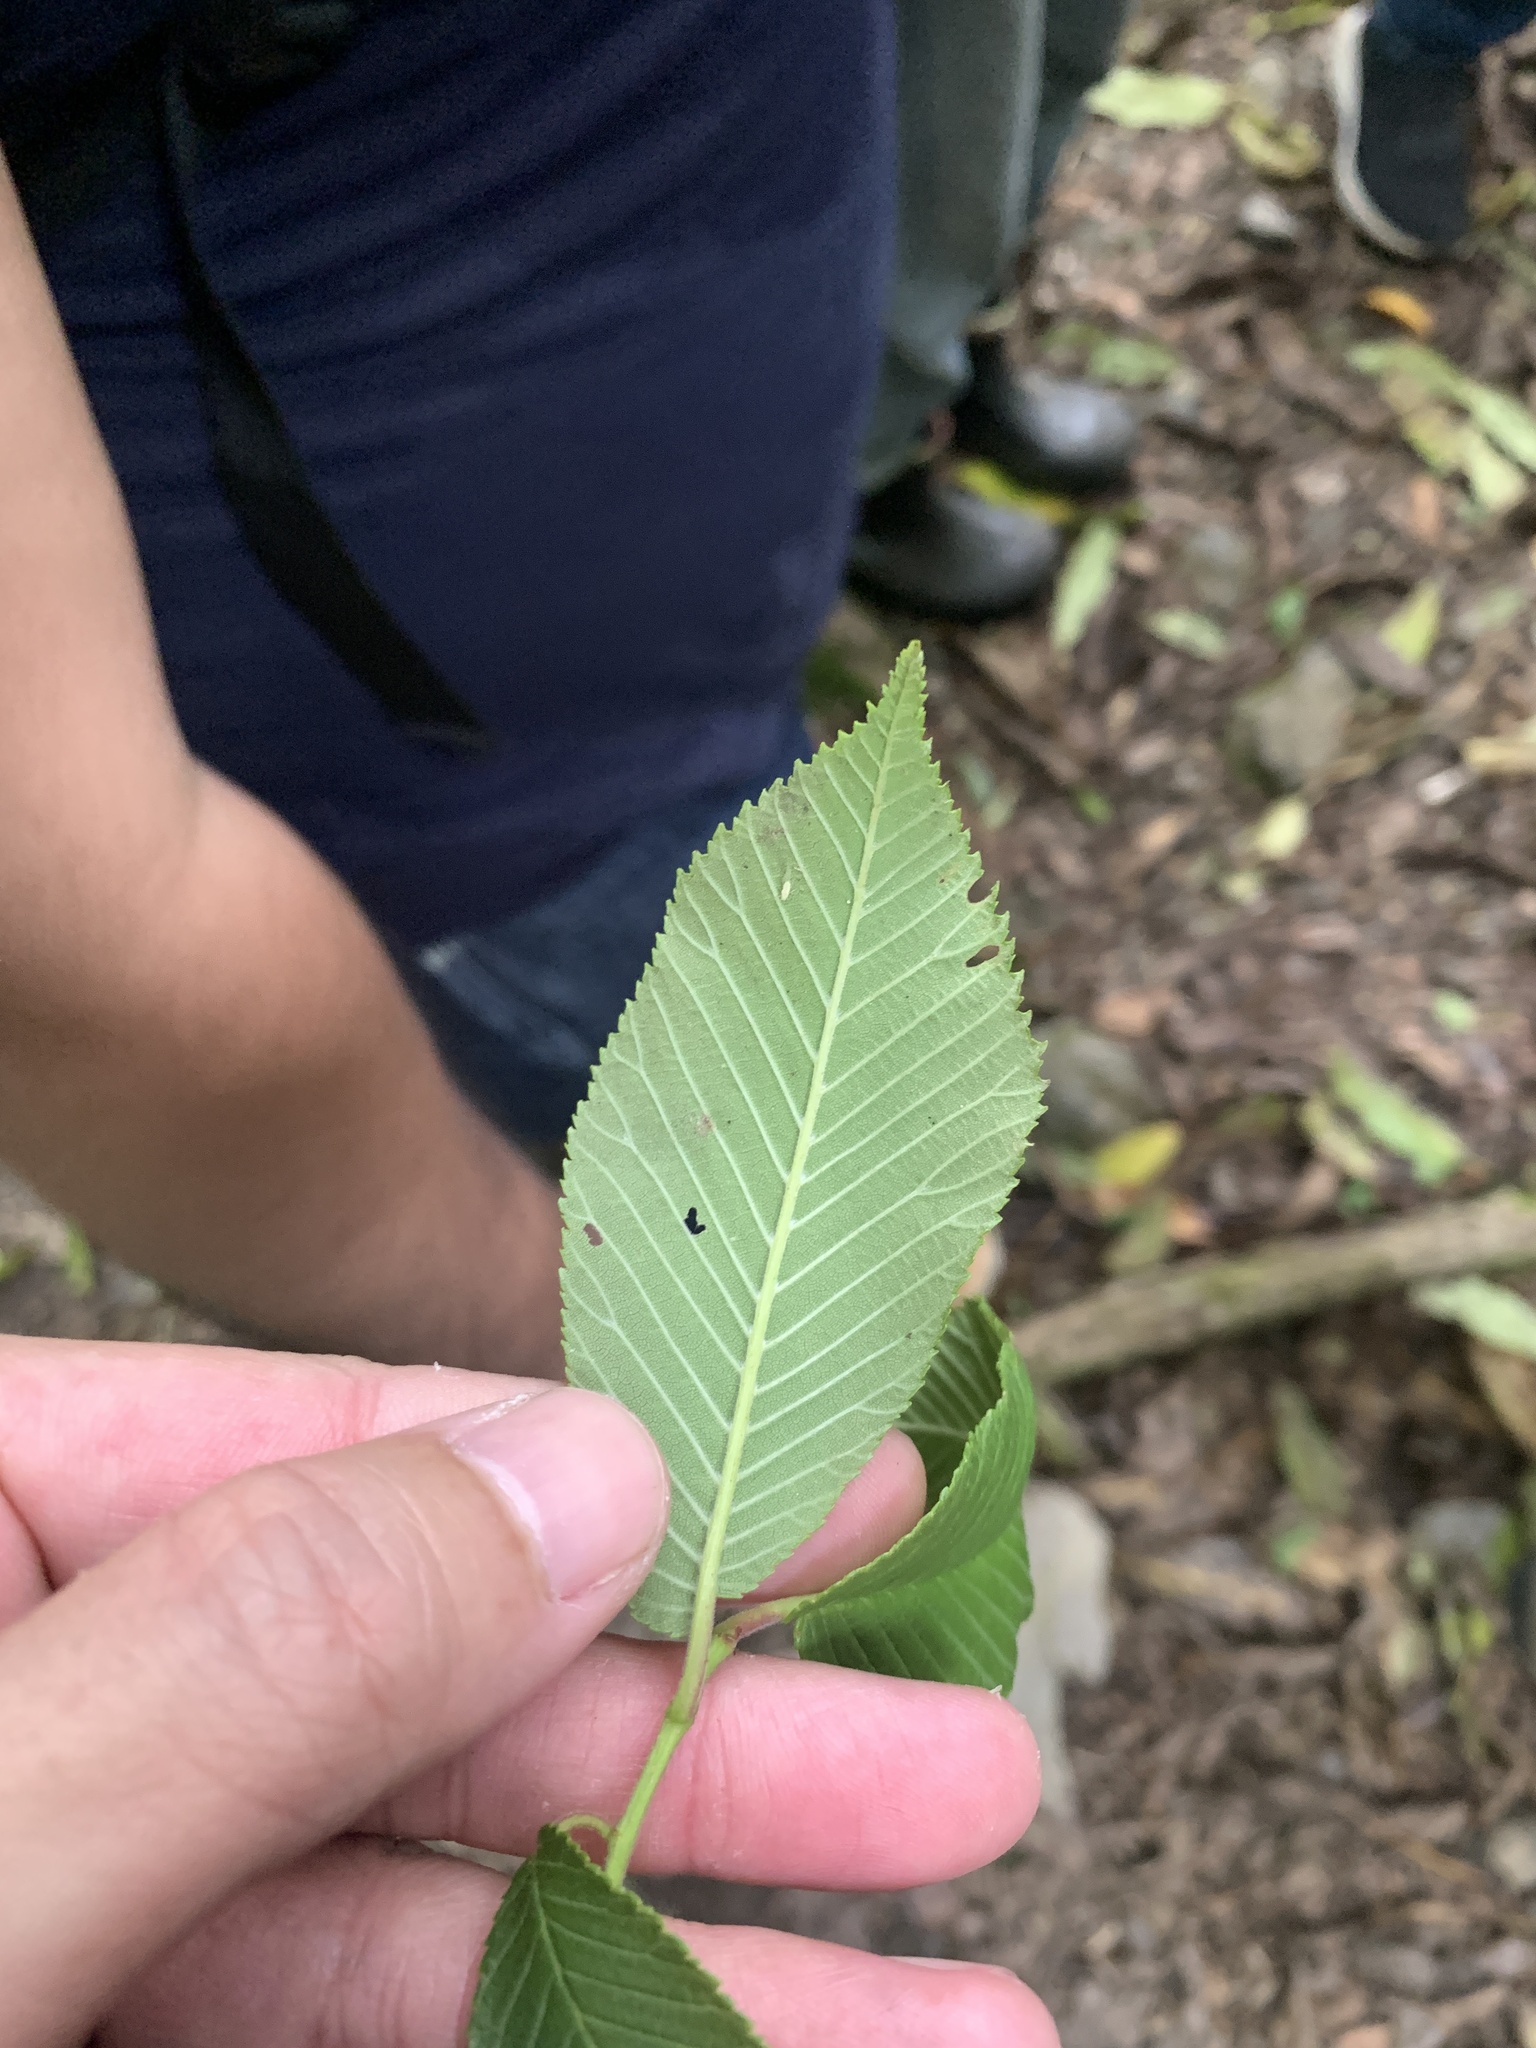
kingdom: Plantae
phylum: Tracheophyta
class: Magnoliopsida
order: Rosales
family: Ulmaceae
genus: Ulmus
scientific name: Ulmus uyematsui
